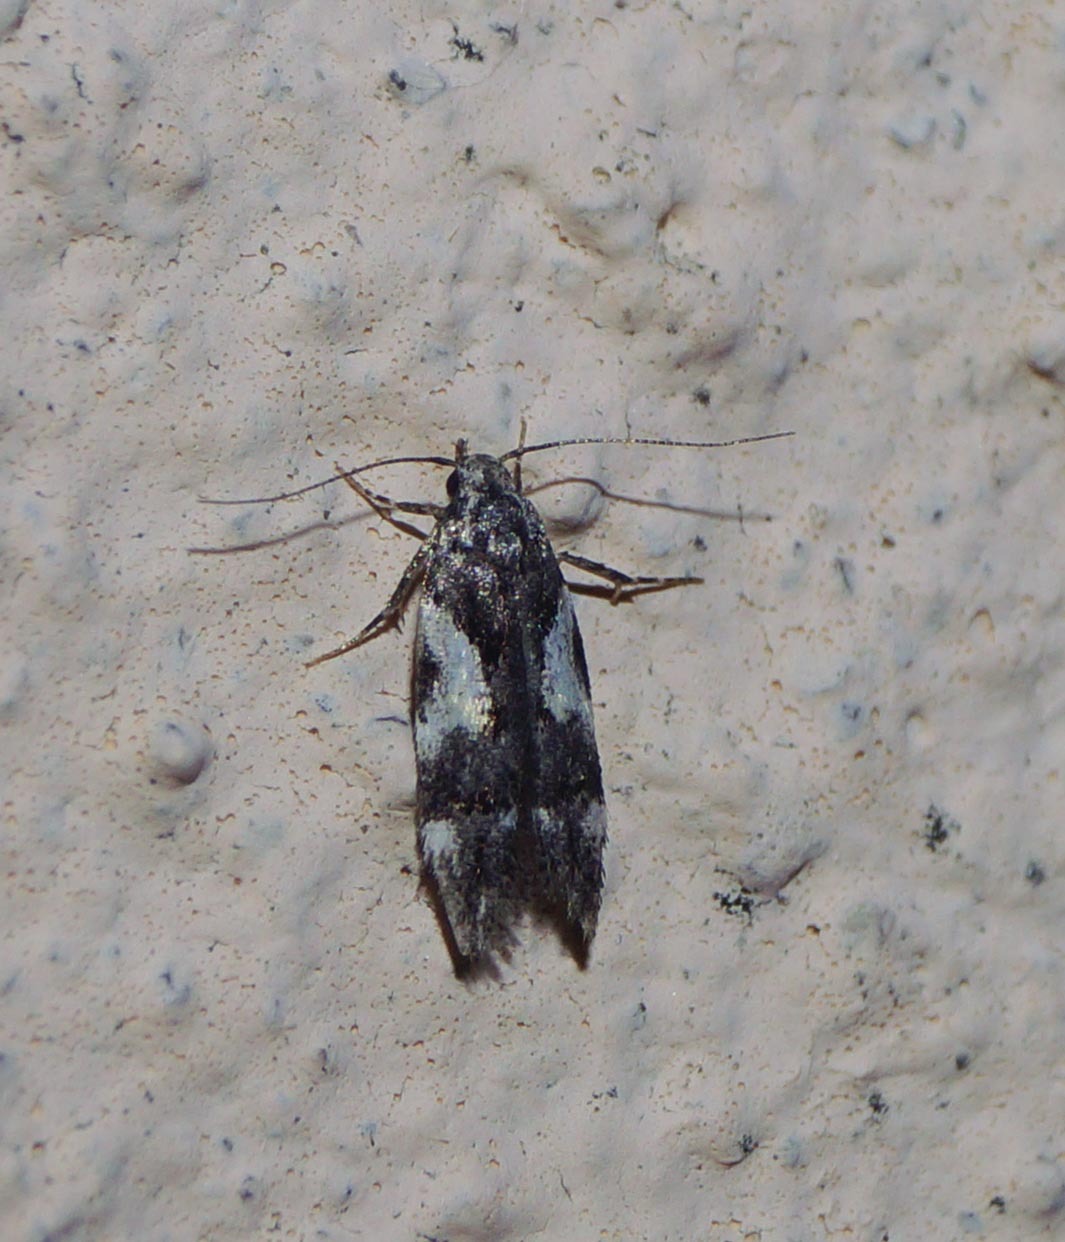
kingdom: Animalia
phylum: Arthropoda
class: Insecta
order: Lepidoptera
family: Gelechiidae
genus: Teleiodes
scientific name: Teleiodes luculella
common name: Crescent groundling
